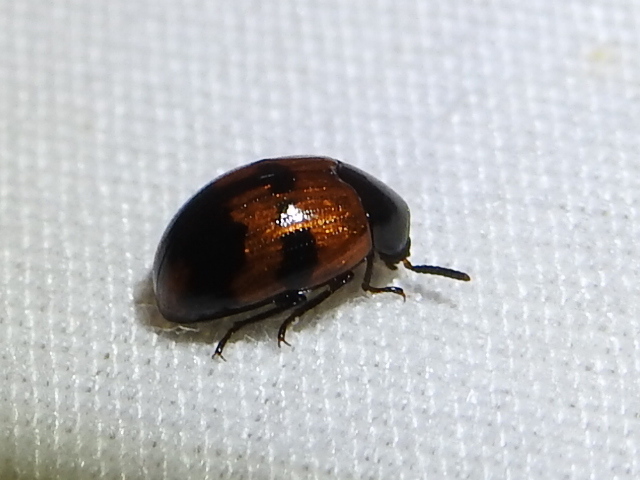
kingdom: Animalia
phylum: Arthropoda
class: Insecta
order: Coleoptera
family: Tenebrionidae
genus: Diaperis
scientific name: Diaperis nigronotata
